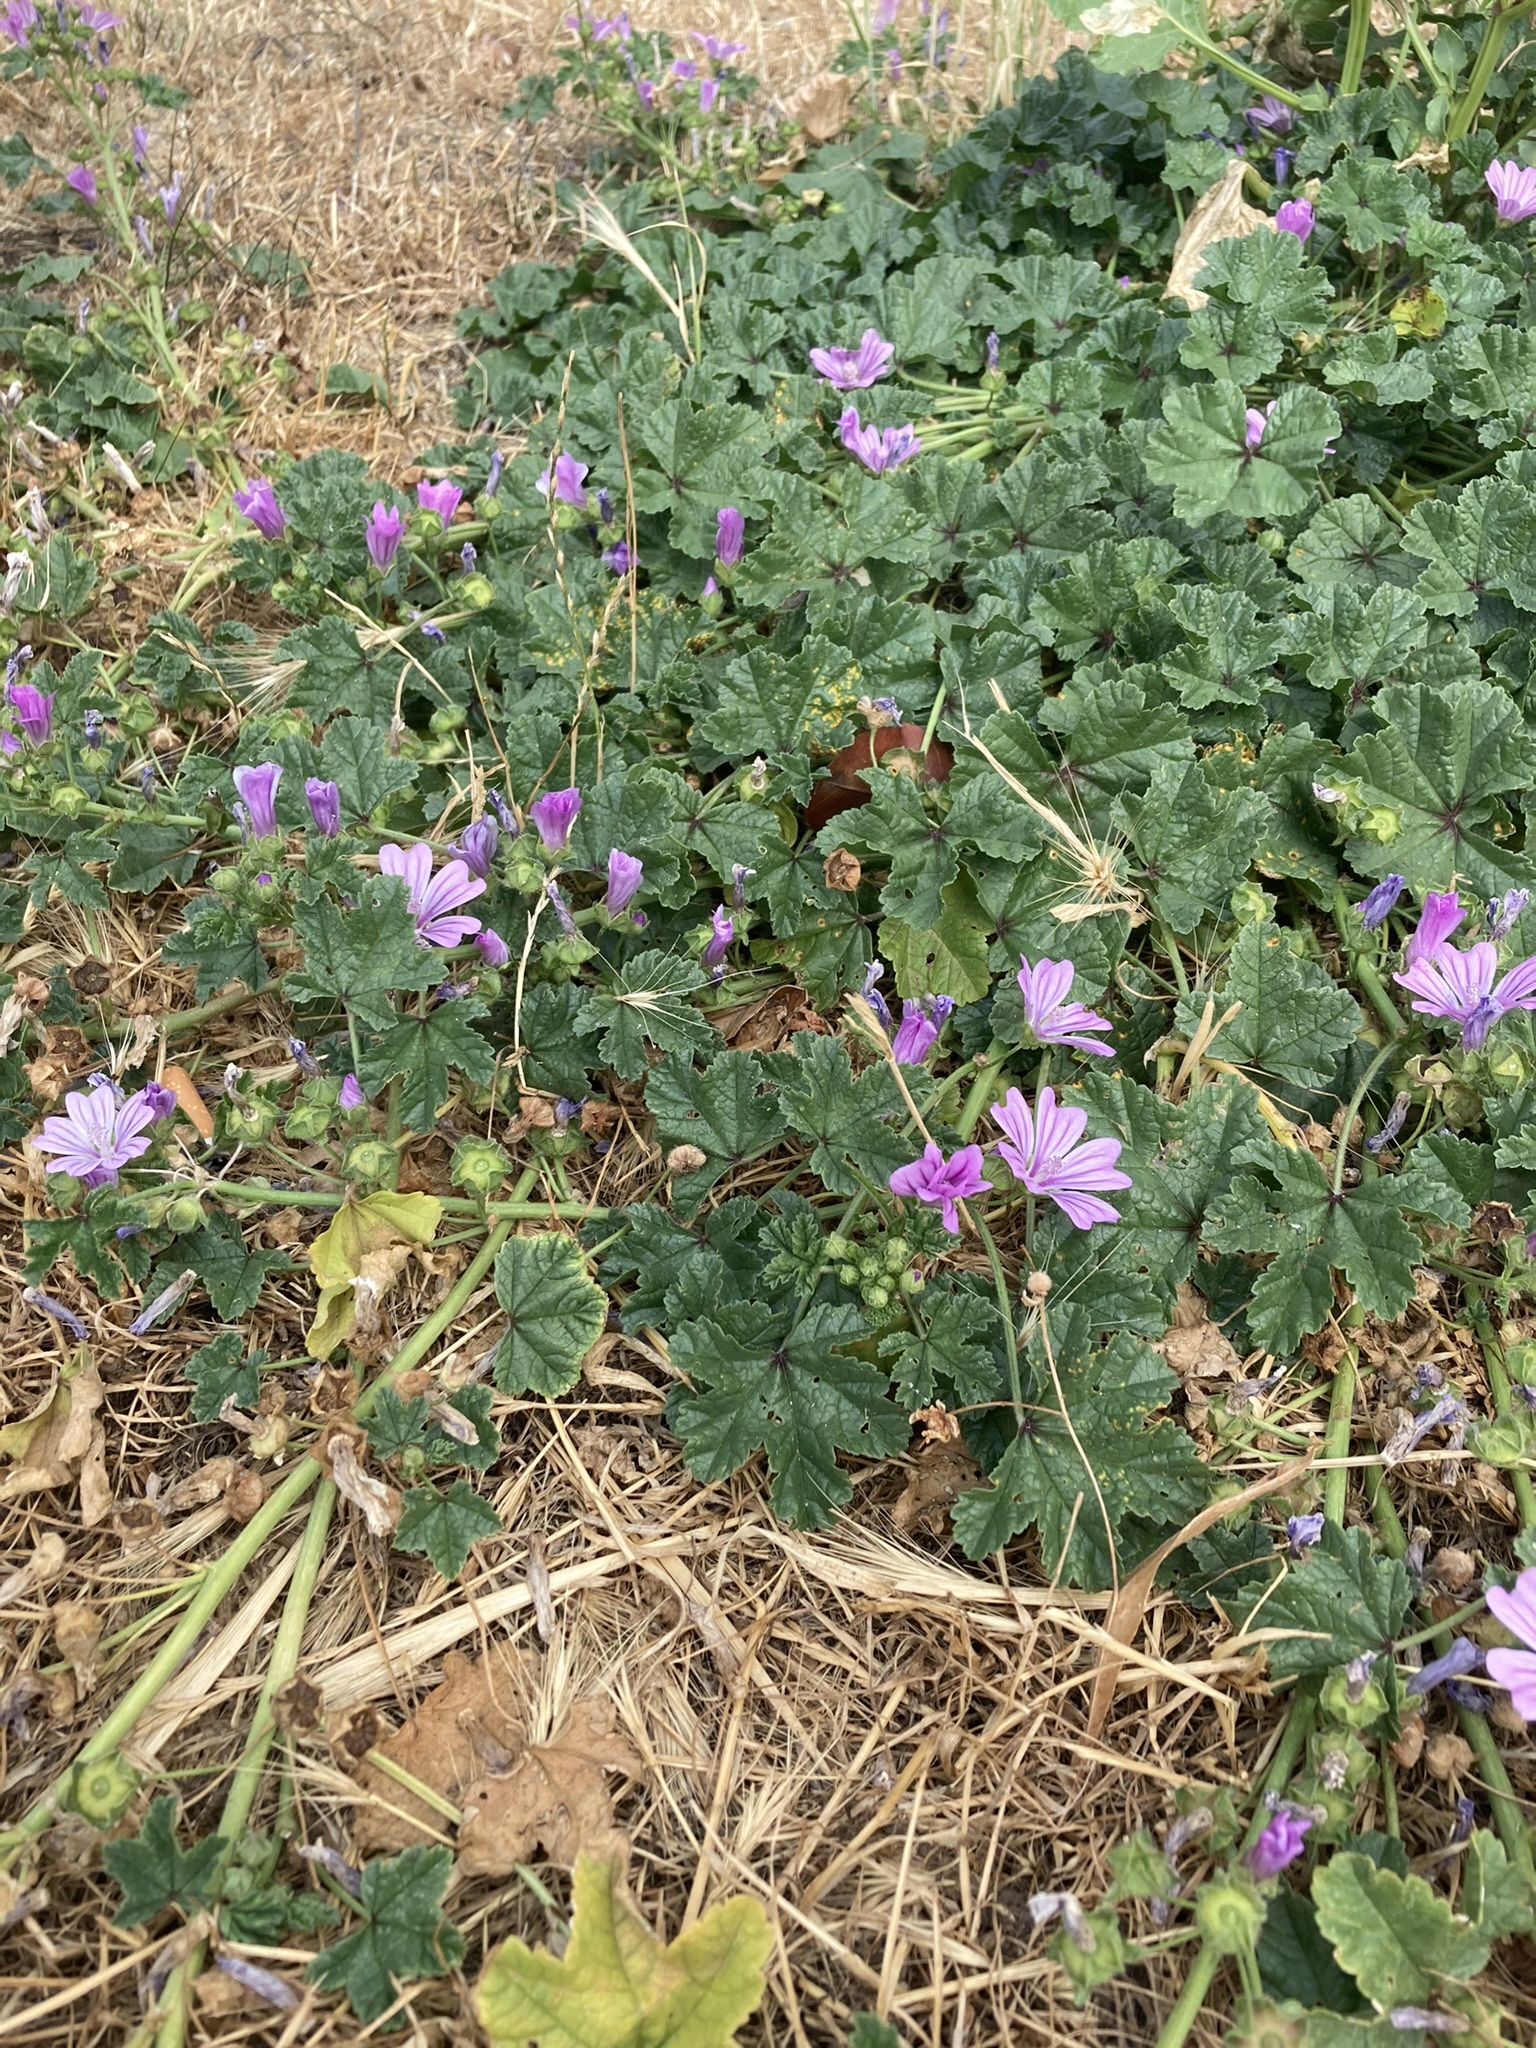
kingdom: Plantae
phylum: Tracheophyta
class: Magnoliopsida
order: Malvales
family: Malvaceae
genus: Malva
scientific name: Malva sylvestris
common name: Common mallow
